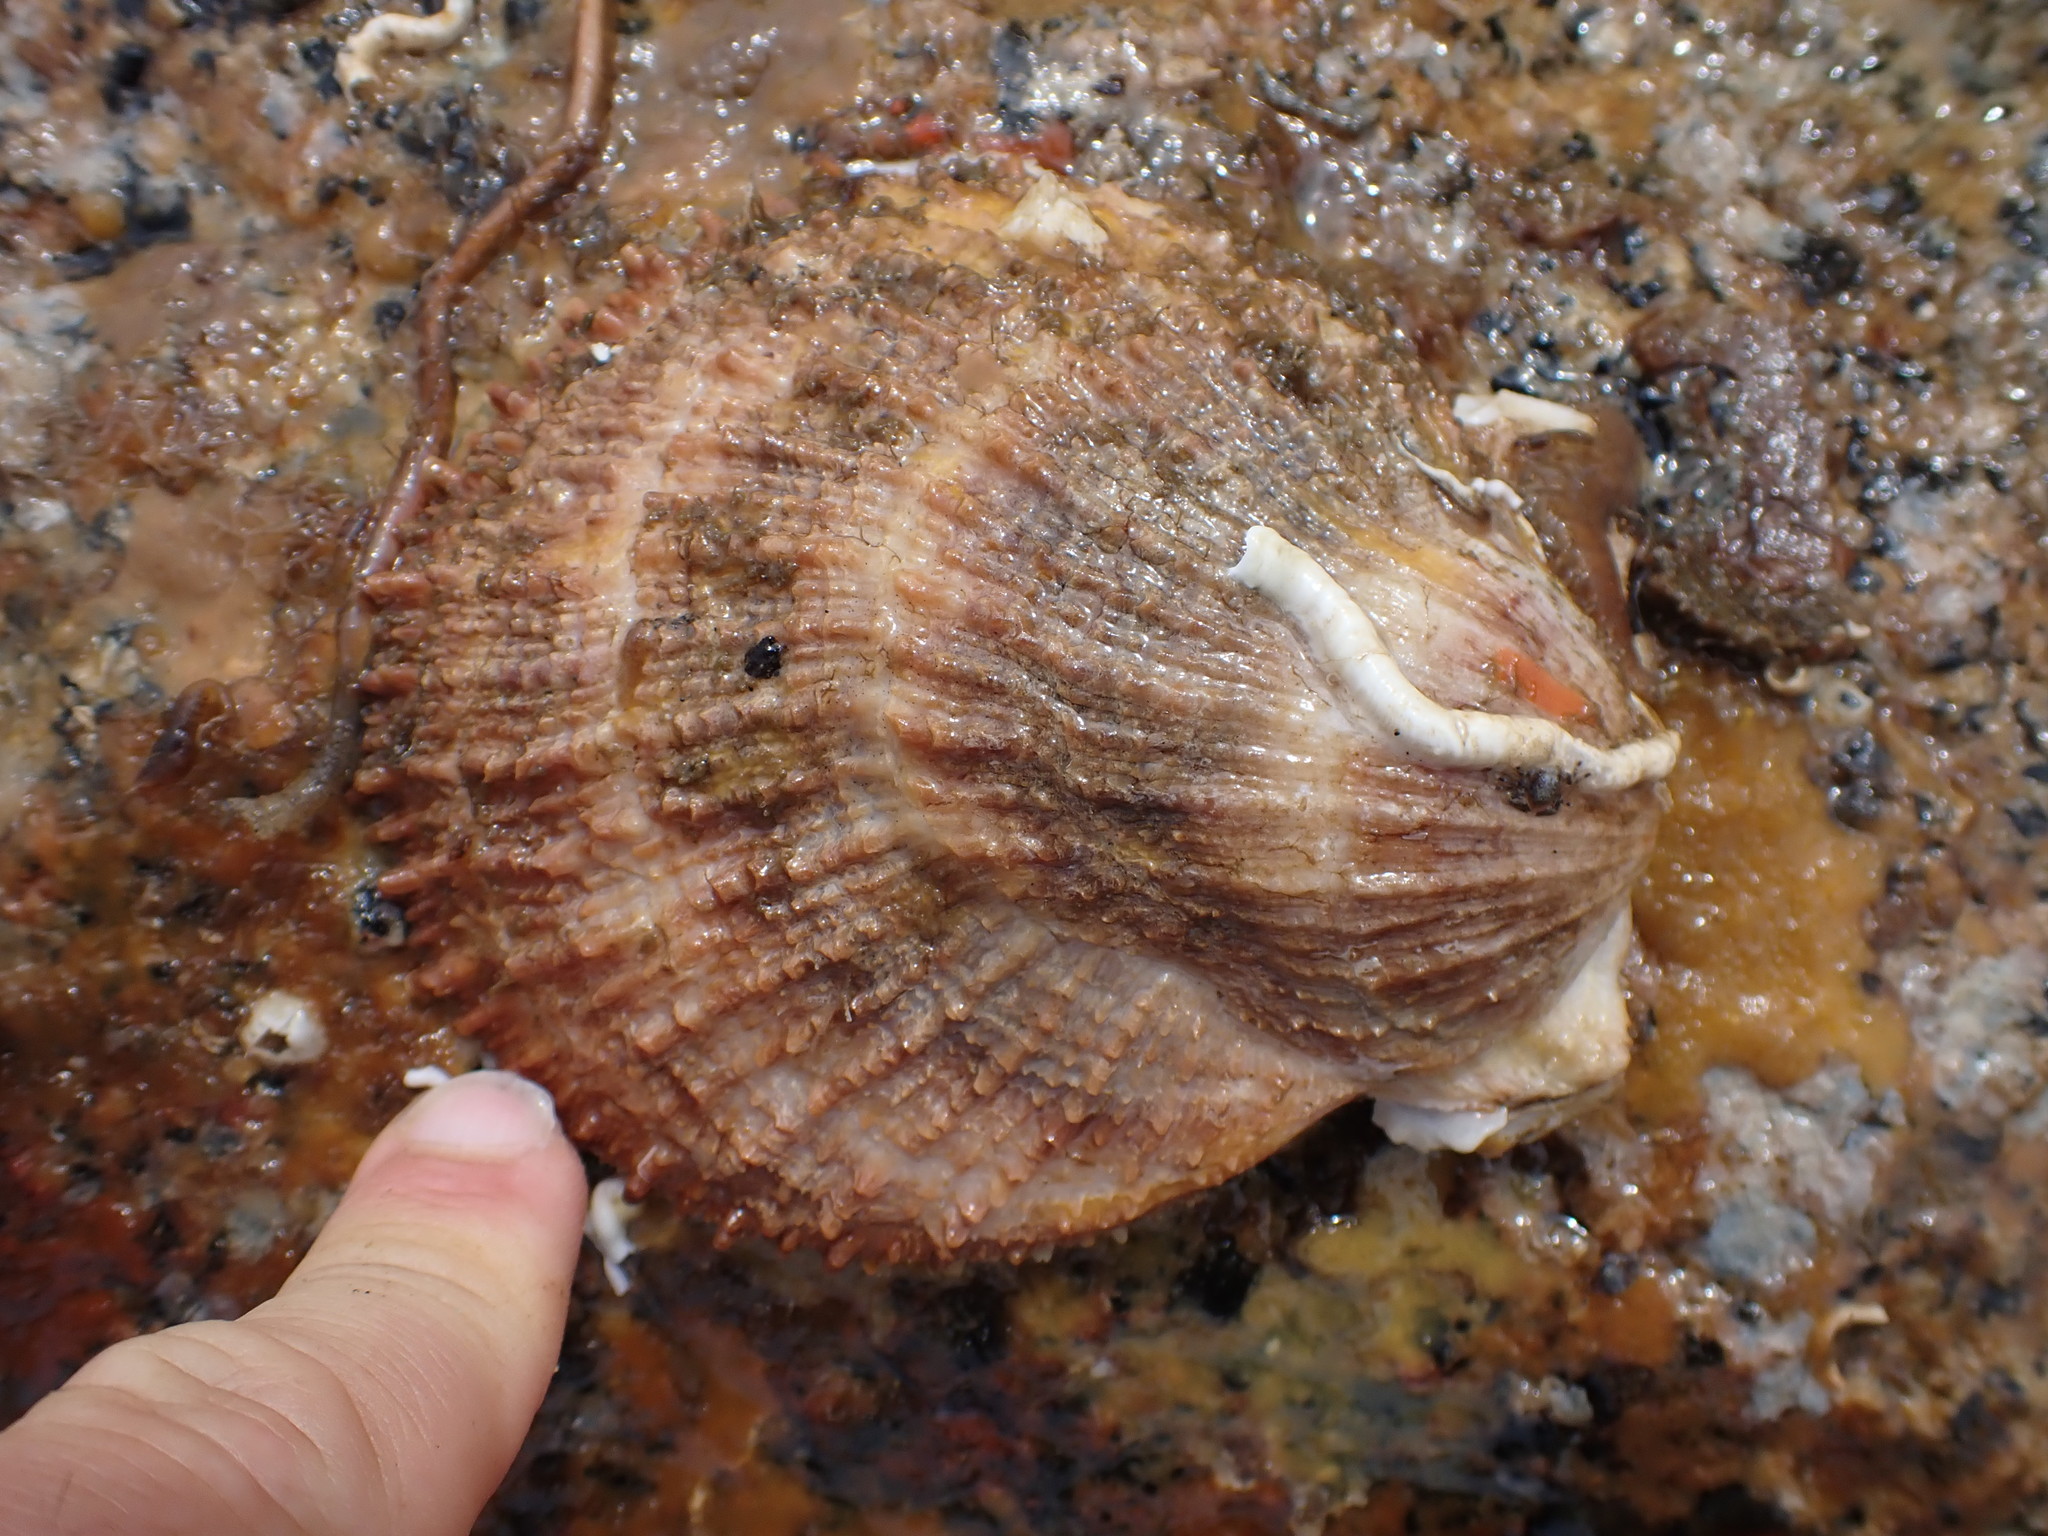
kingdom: Animalia
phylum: Mollusca
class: Bivalvia
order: Pectinida
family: Pectinidae
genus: Crassadoma
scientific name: Crassadoma gigantea
